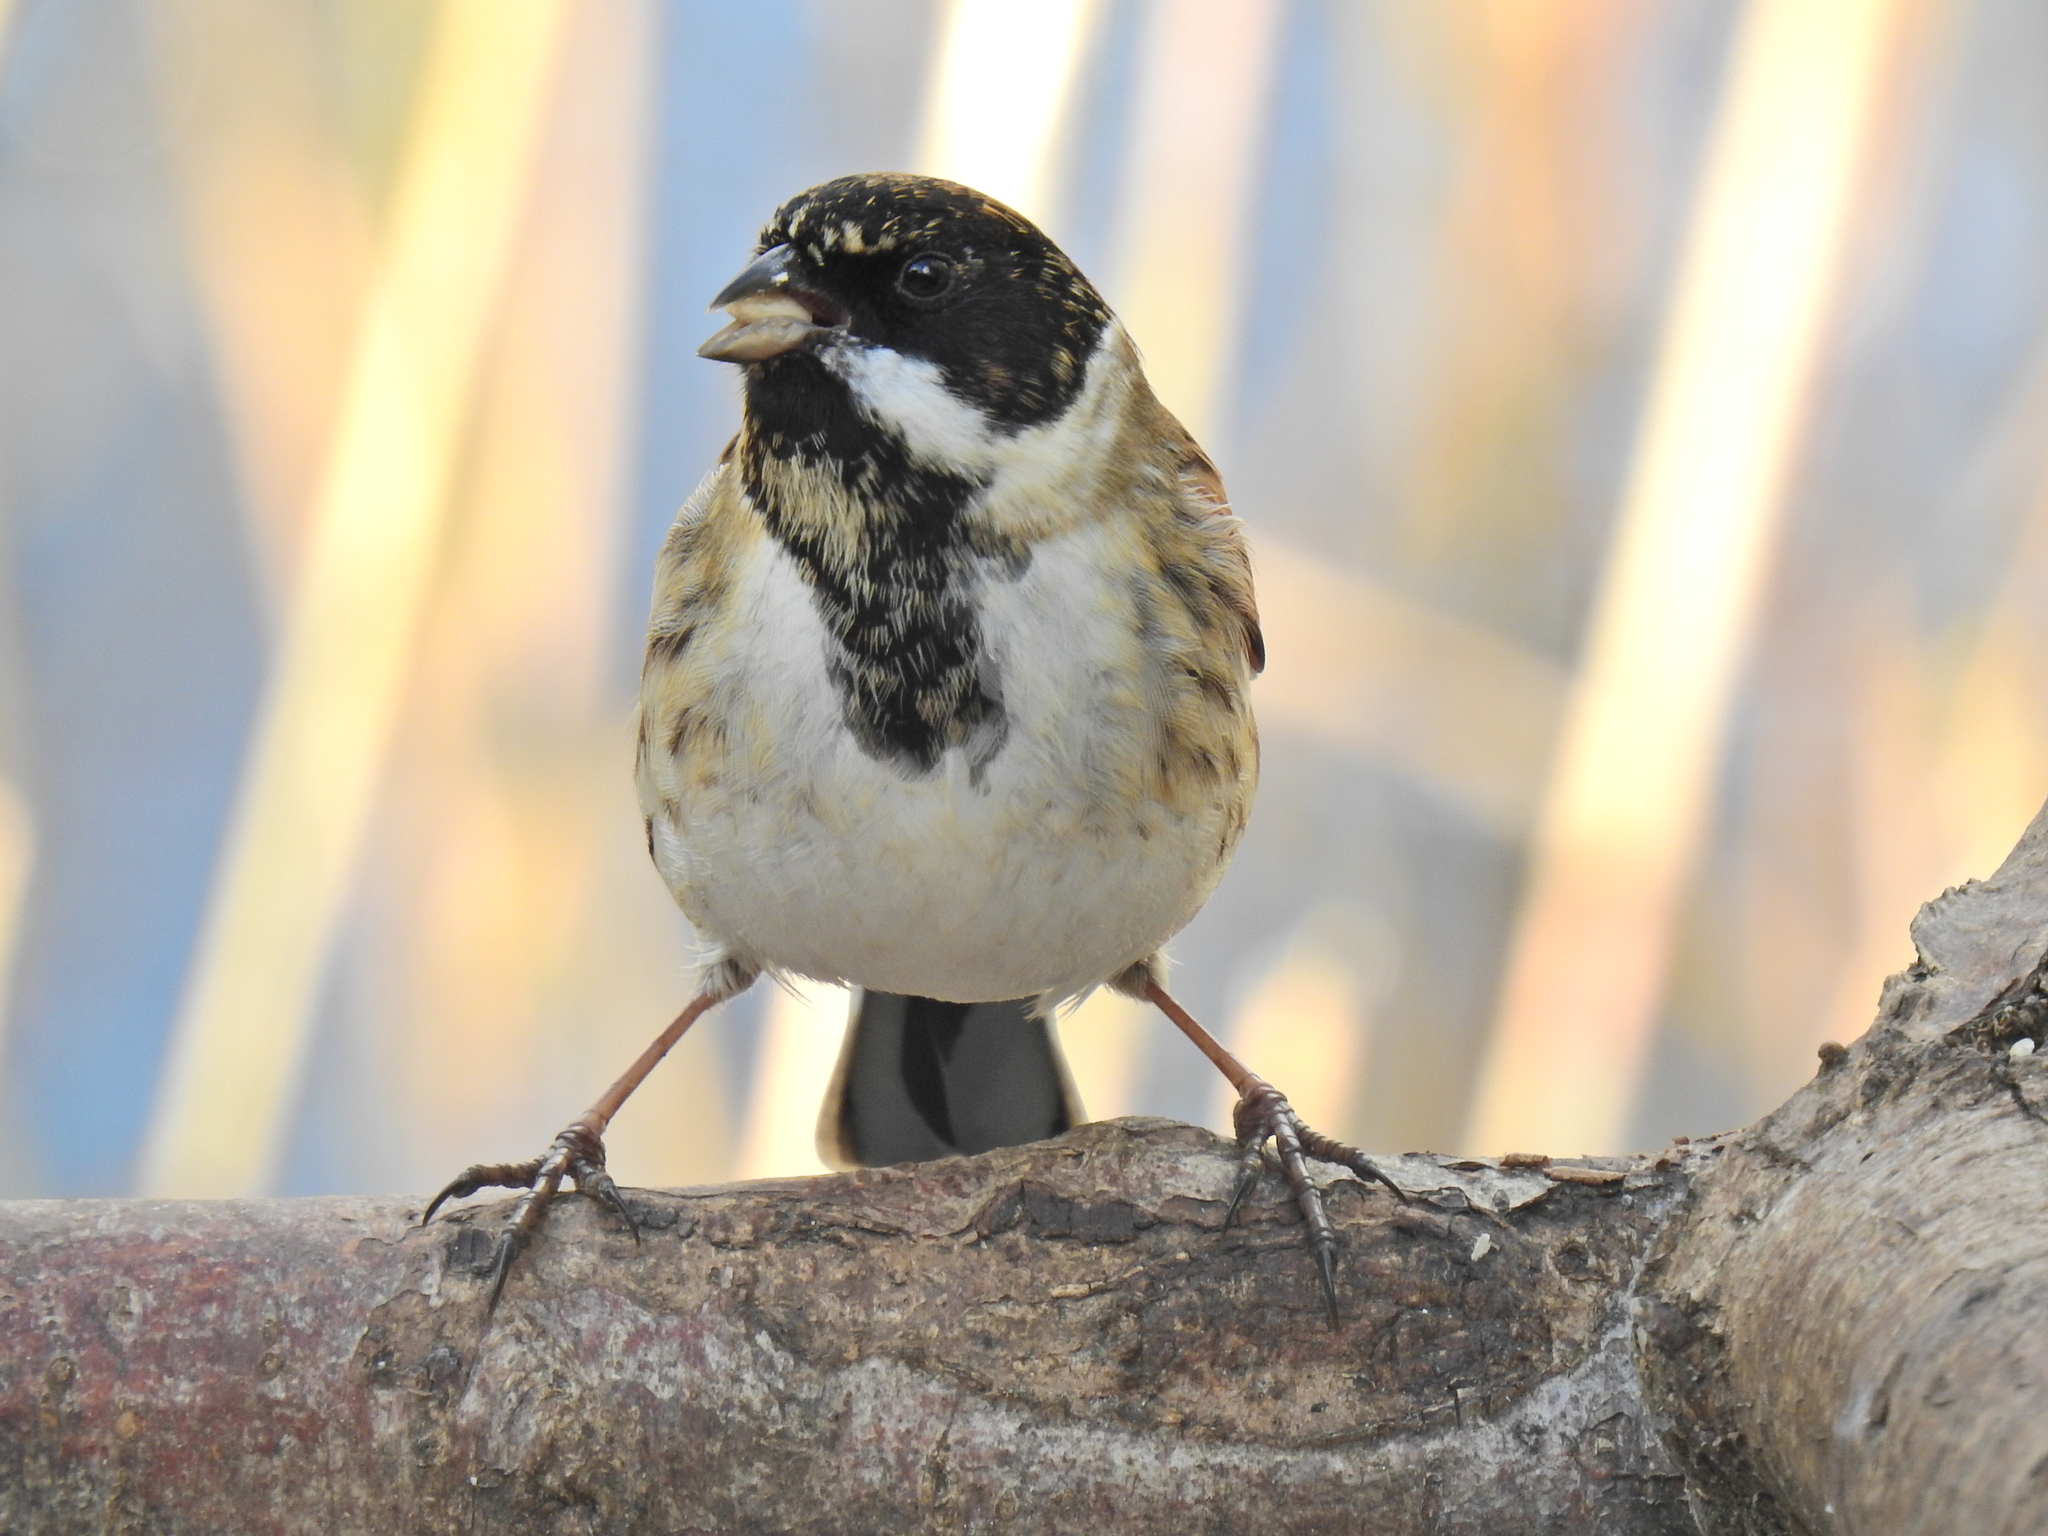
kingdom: Animalia
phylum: Chordata
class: Aves
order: Passeriformes
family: Emberizidae
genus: Emberiza
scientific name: Emberiza schoeniclus
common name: Reed bunting
